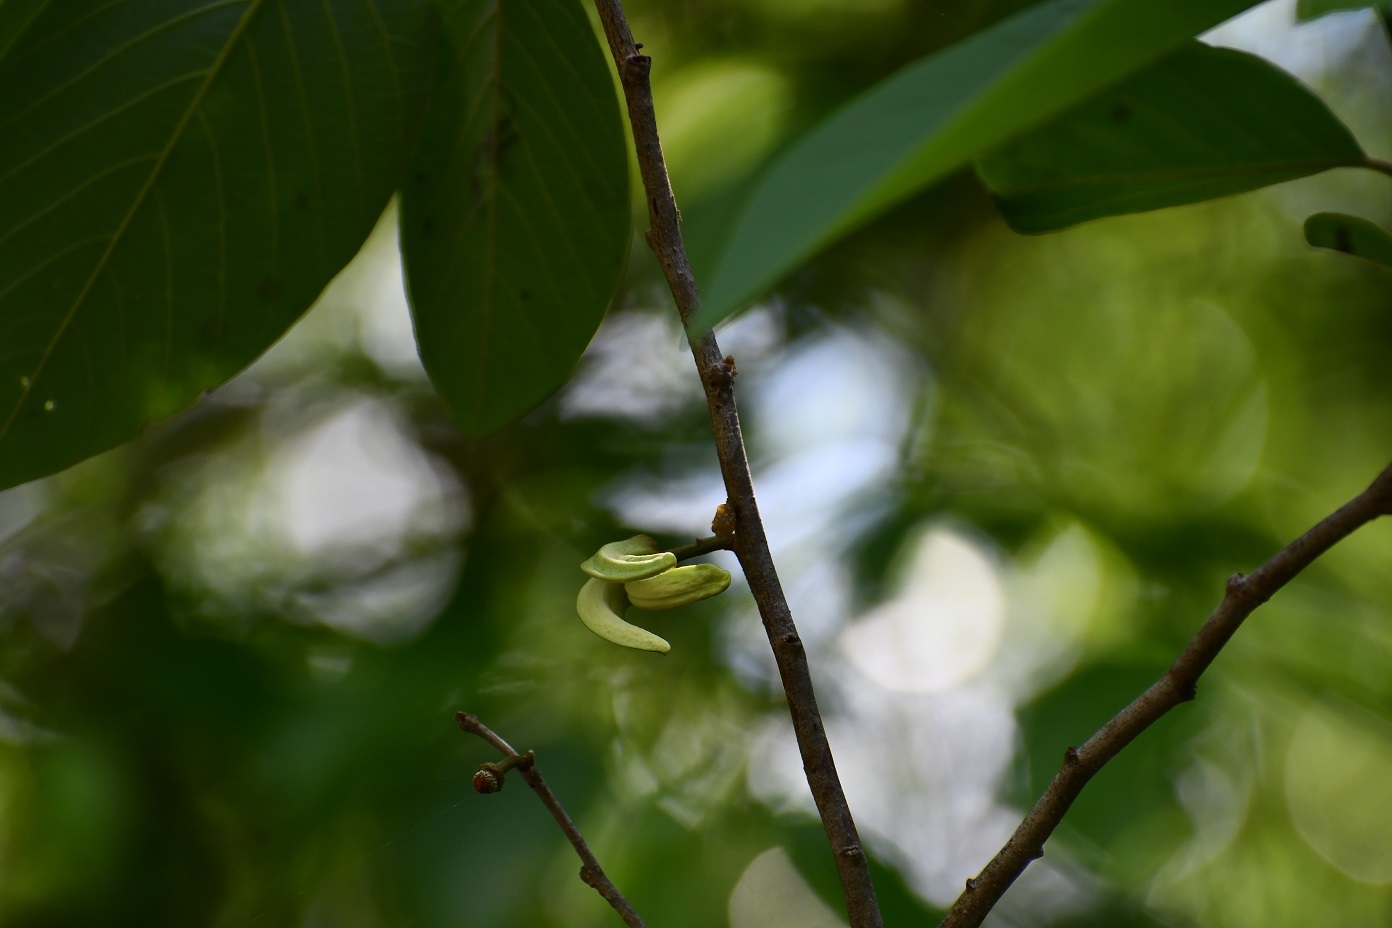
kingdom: Plantae
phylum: Tracheophyta
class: Magnoliopsida
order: Magnoliales
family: Annonaceae
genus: Annona
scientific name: Annona reticulata
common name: Custard apple
